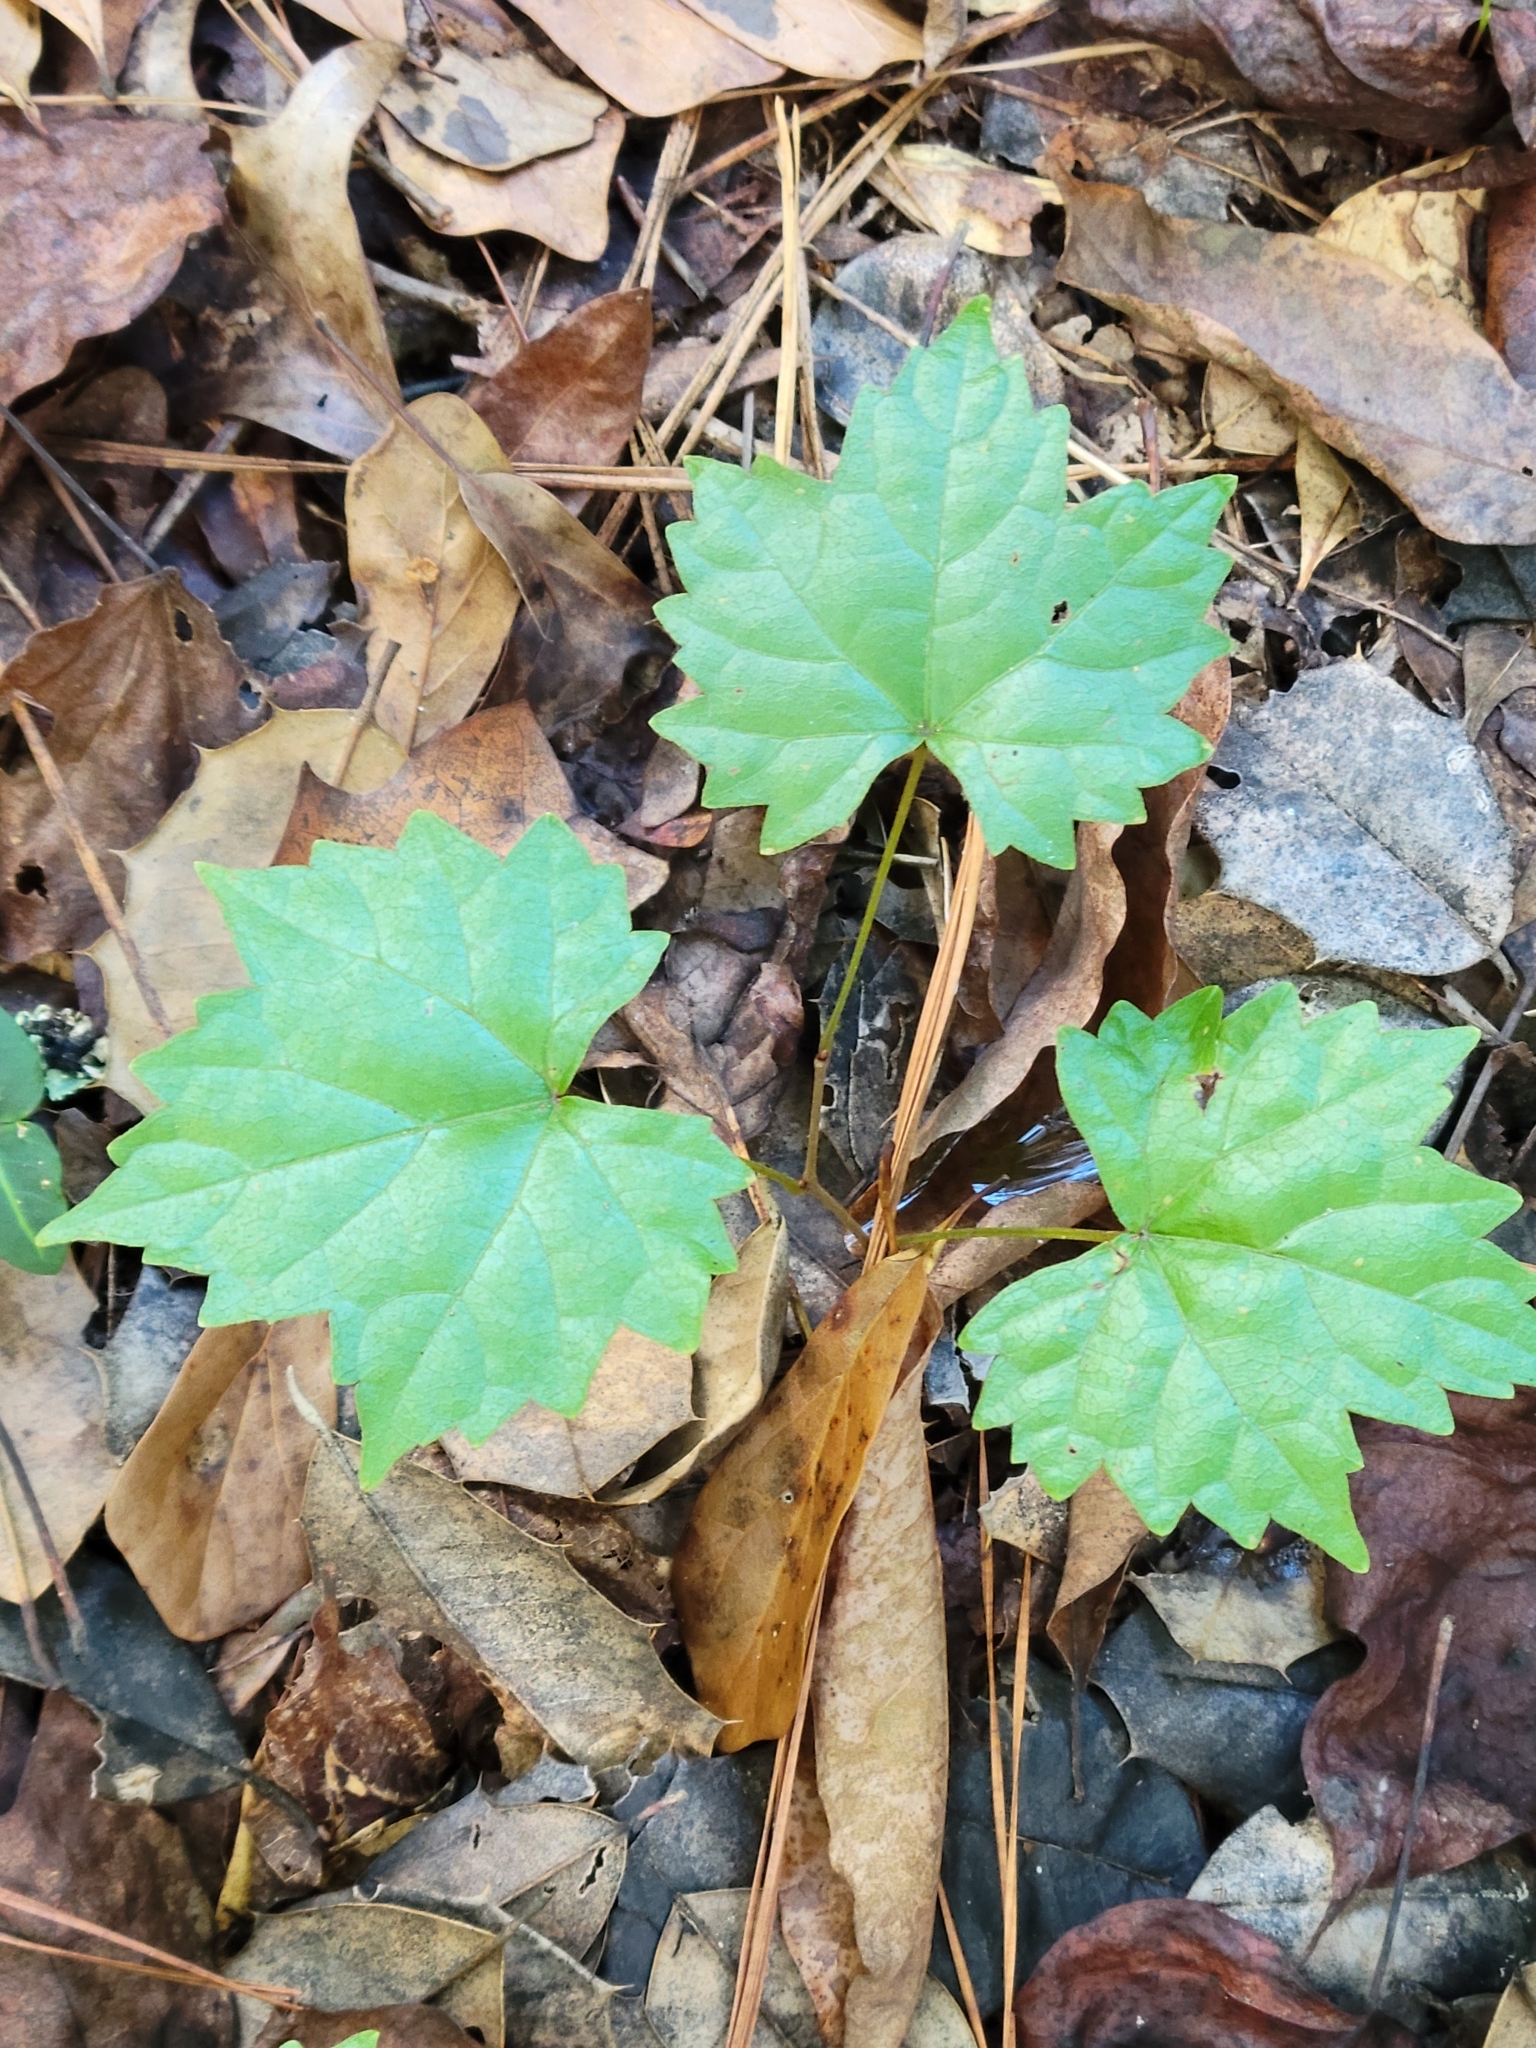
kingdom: Plantae
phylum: Tracheophyta
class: Magnoliopsida
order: Vitales
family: Vitaceae
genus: Vitis
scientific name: Vitis rotundifolia
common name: Muscadine grape
